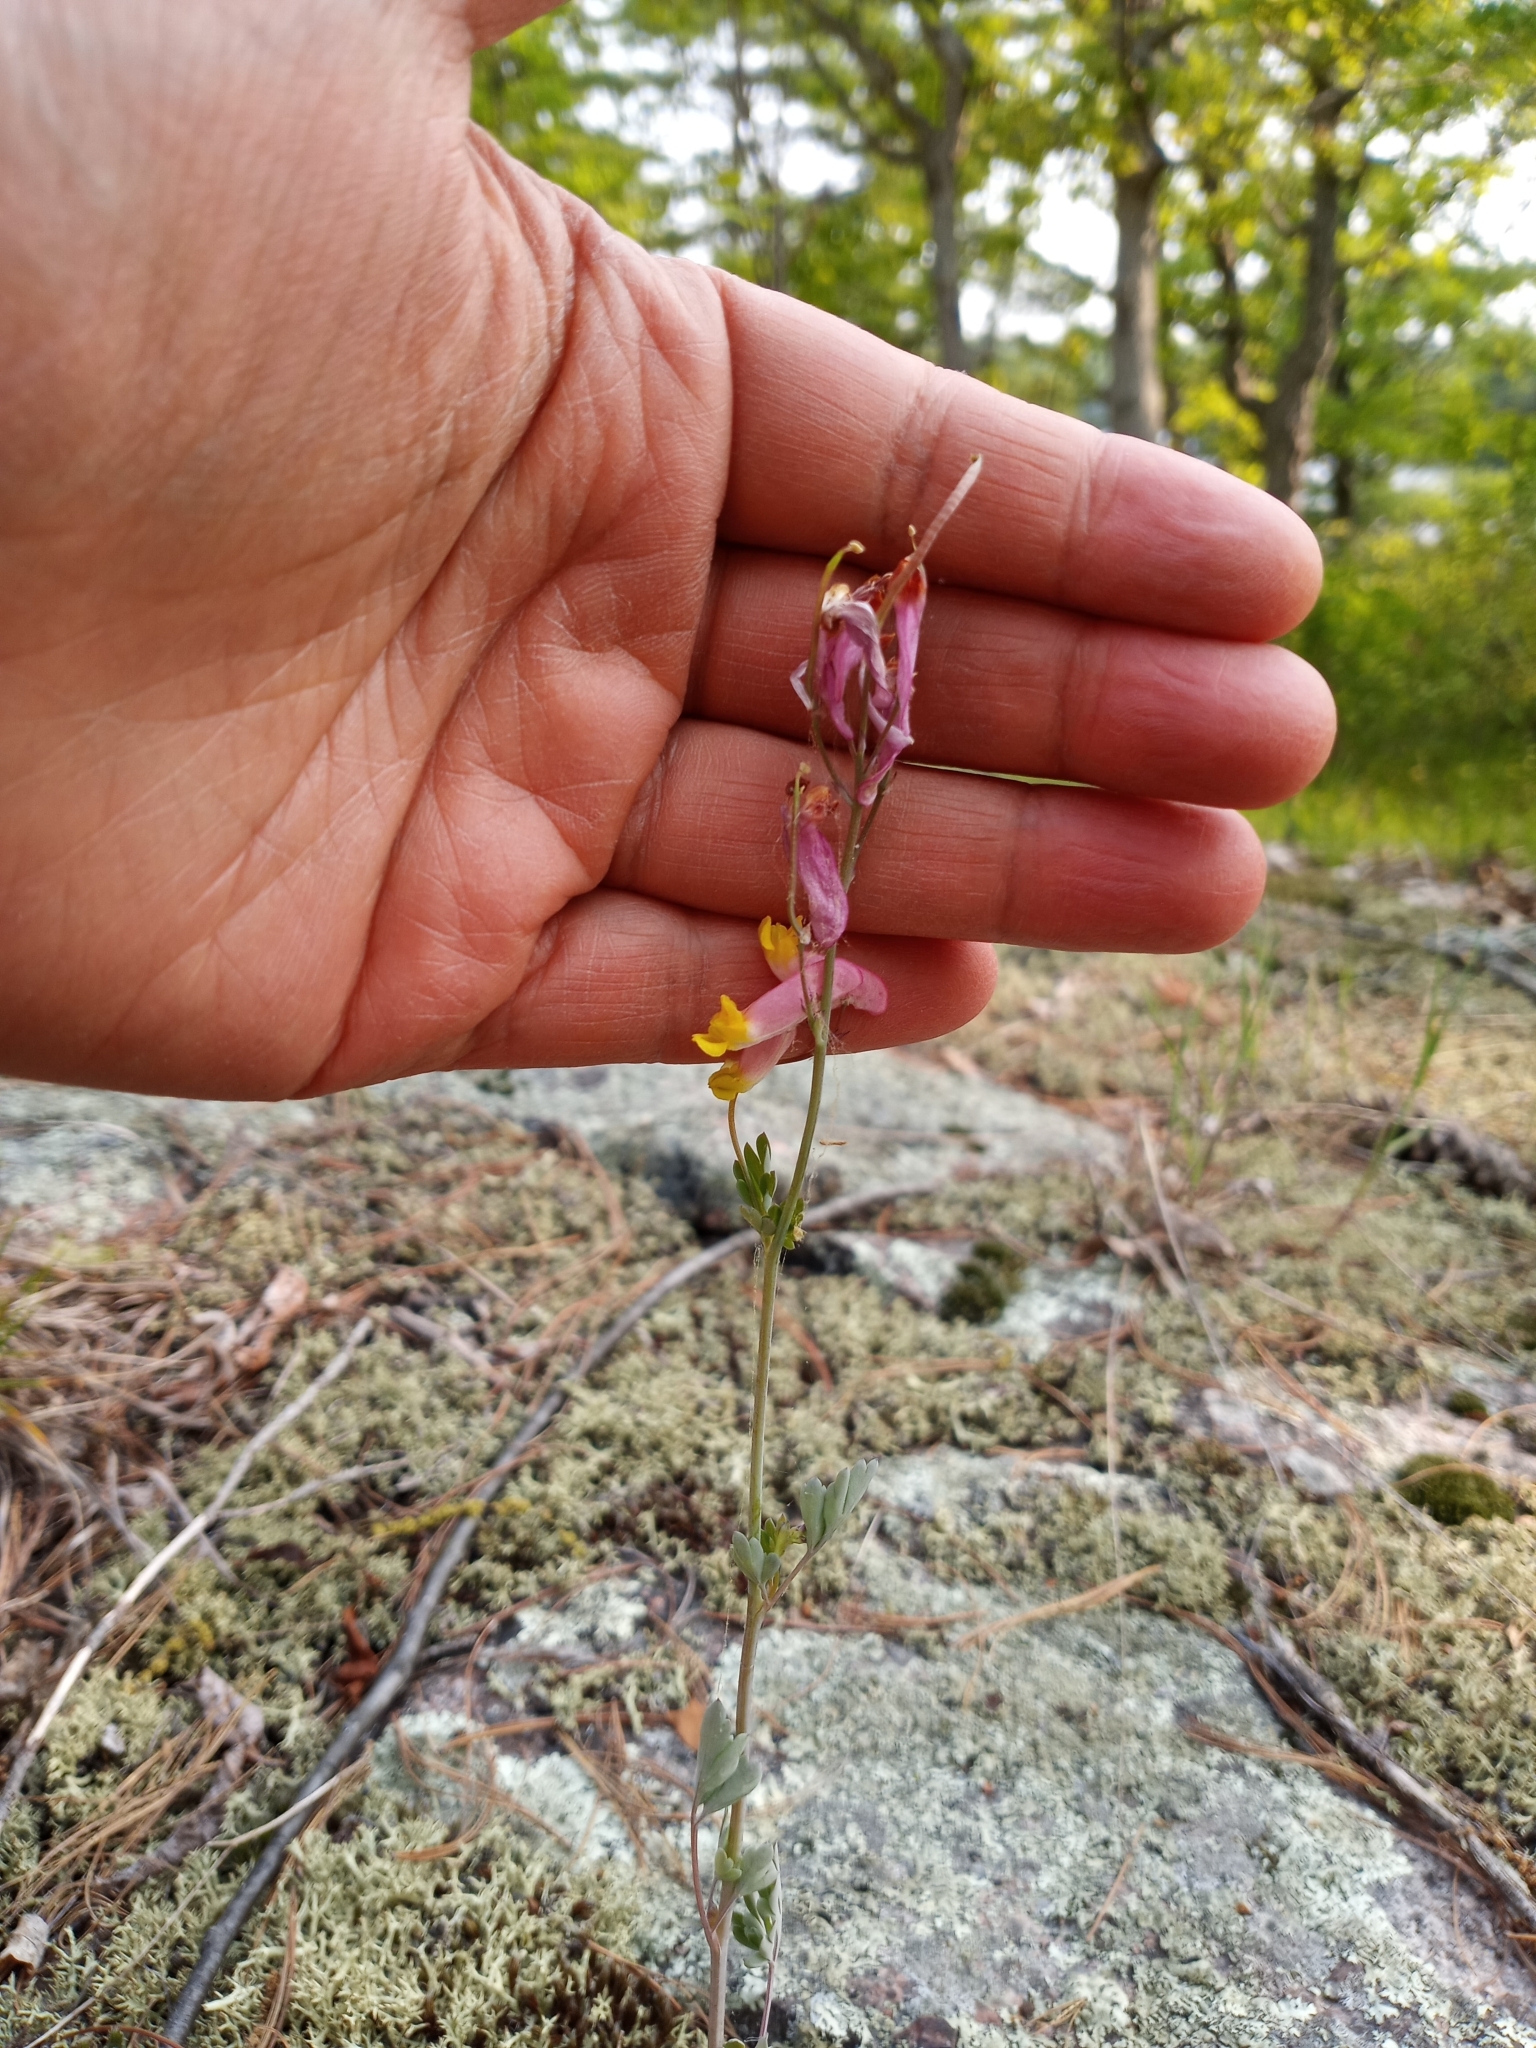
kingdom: Plantae
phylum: Tracheophyta
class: Magnoliopsida
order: Ranunculales
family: Papaveraceae
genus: Capnoides
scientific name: Capnoides sempervirens
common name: Rock harlequin
